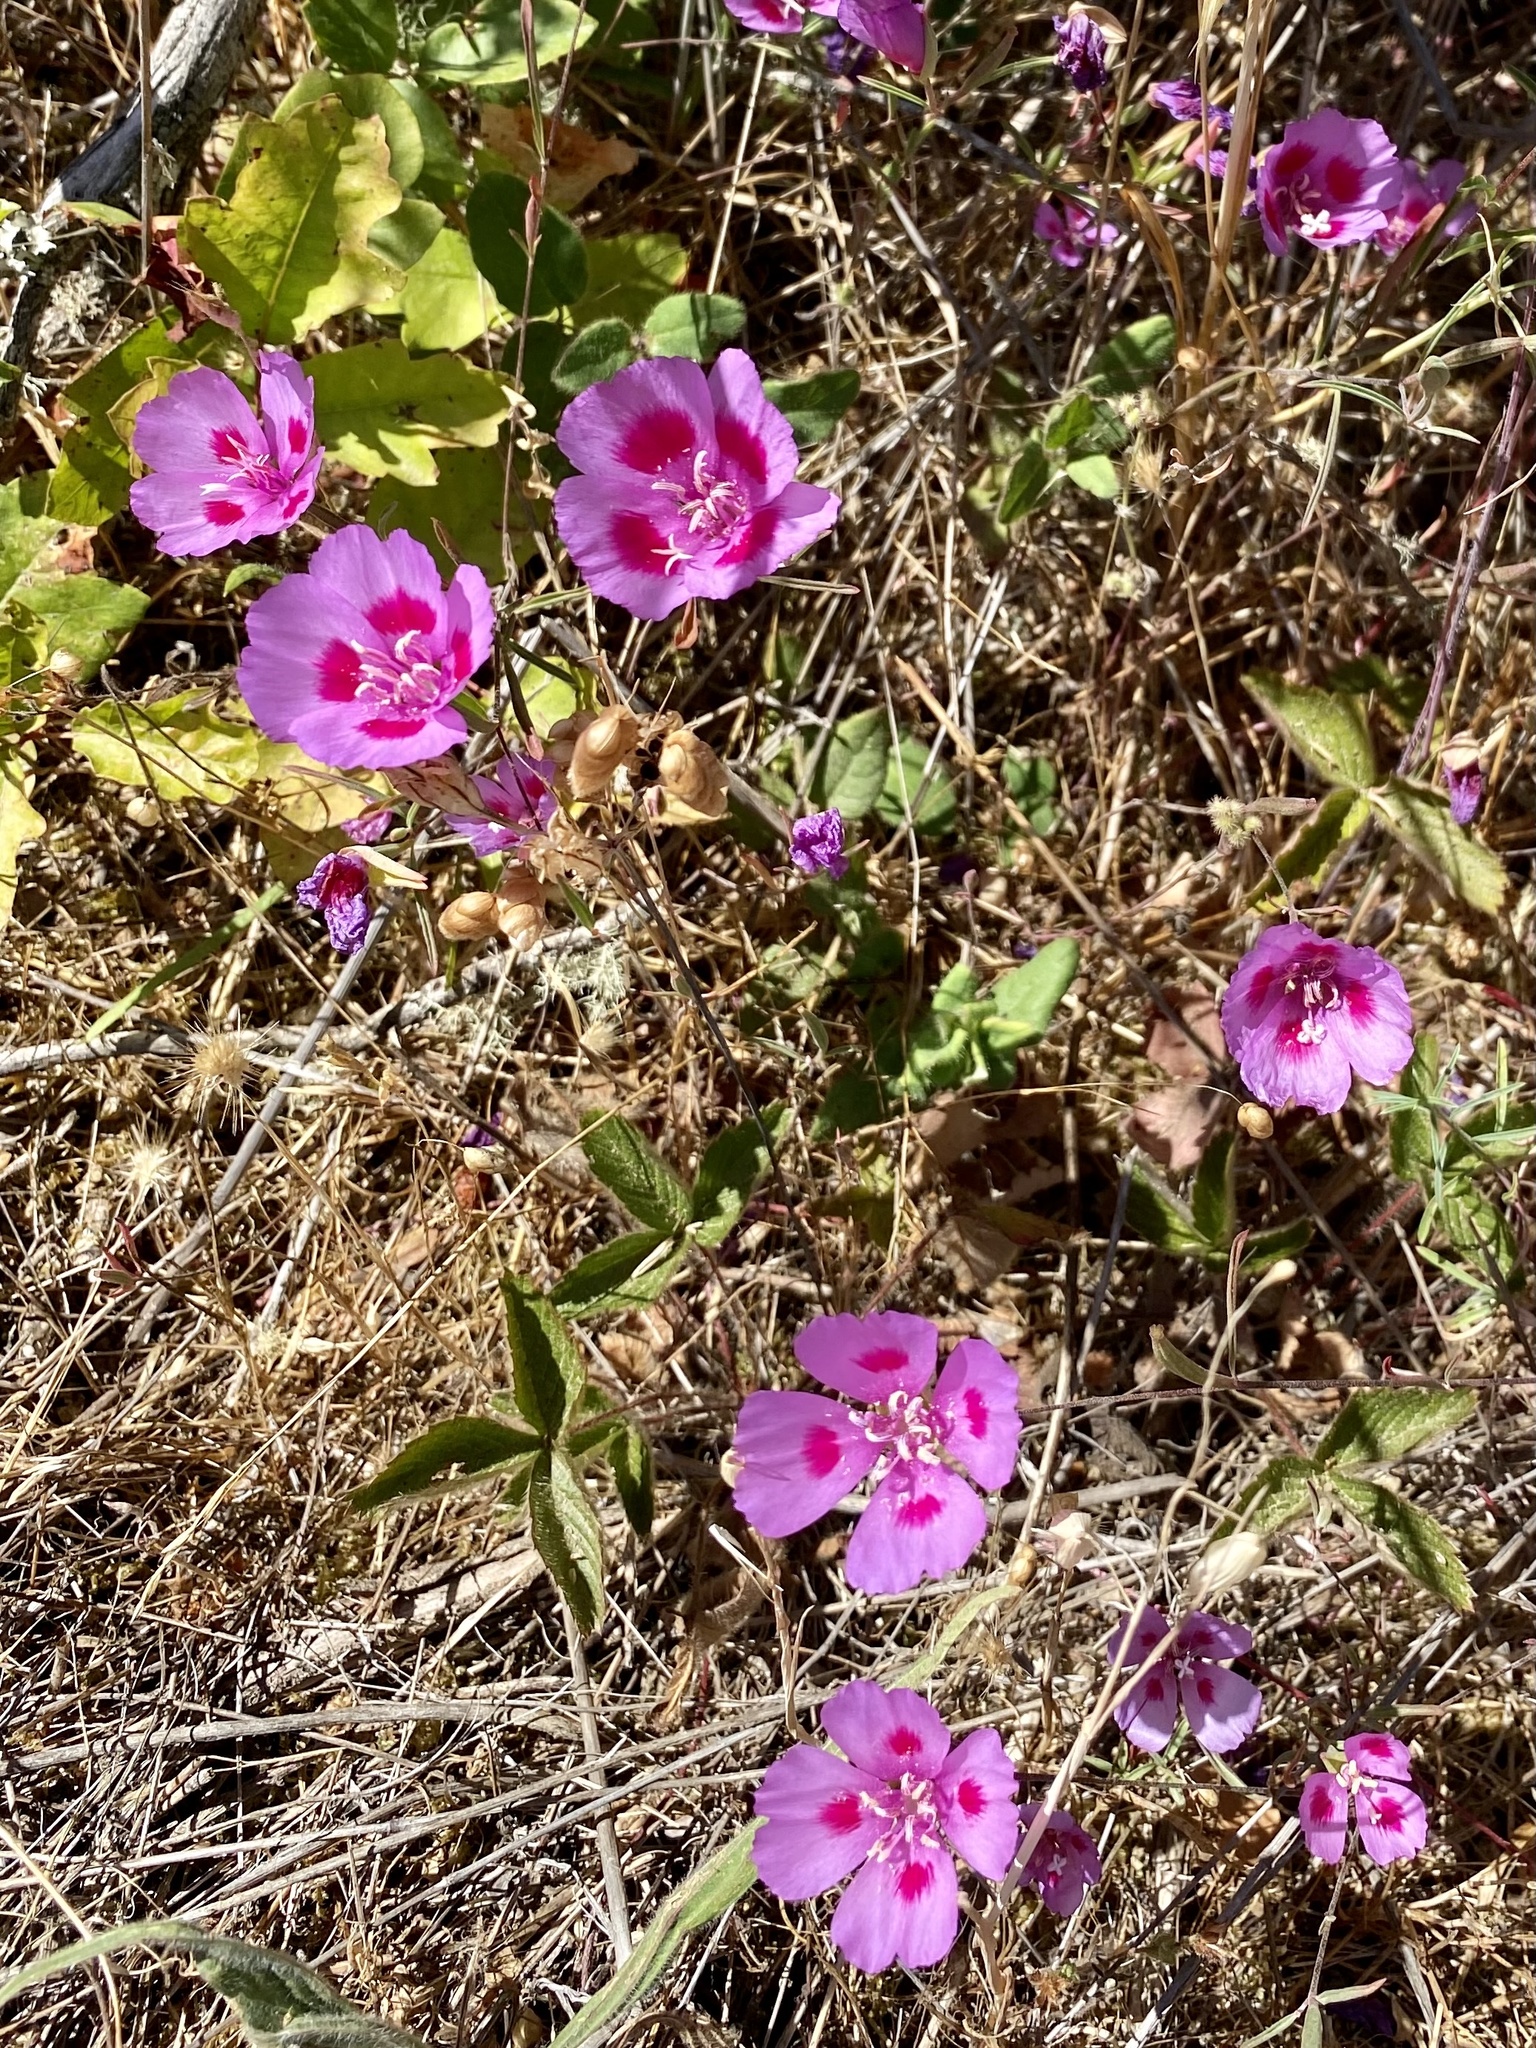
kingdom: Plantae
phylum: Tracheophyta
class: Magnoliopsida
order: Myrtales
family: Onagraceae
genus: Clarkia
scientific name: Clarkia amoena
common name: Godetia
